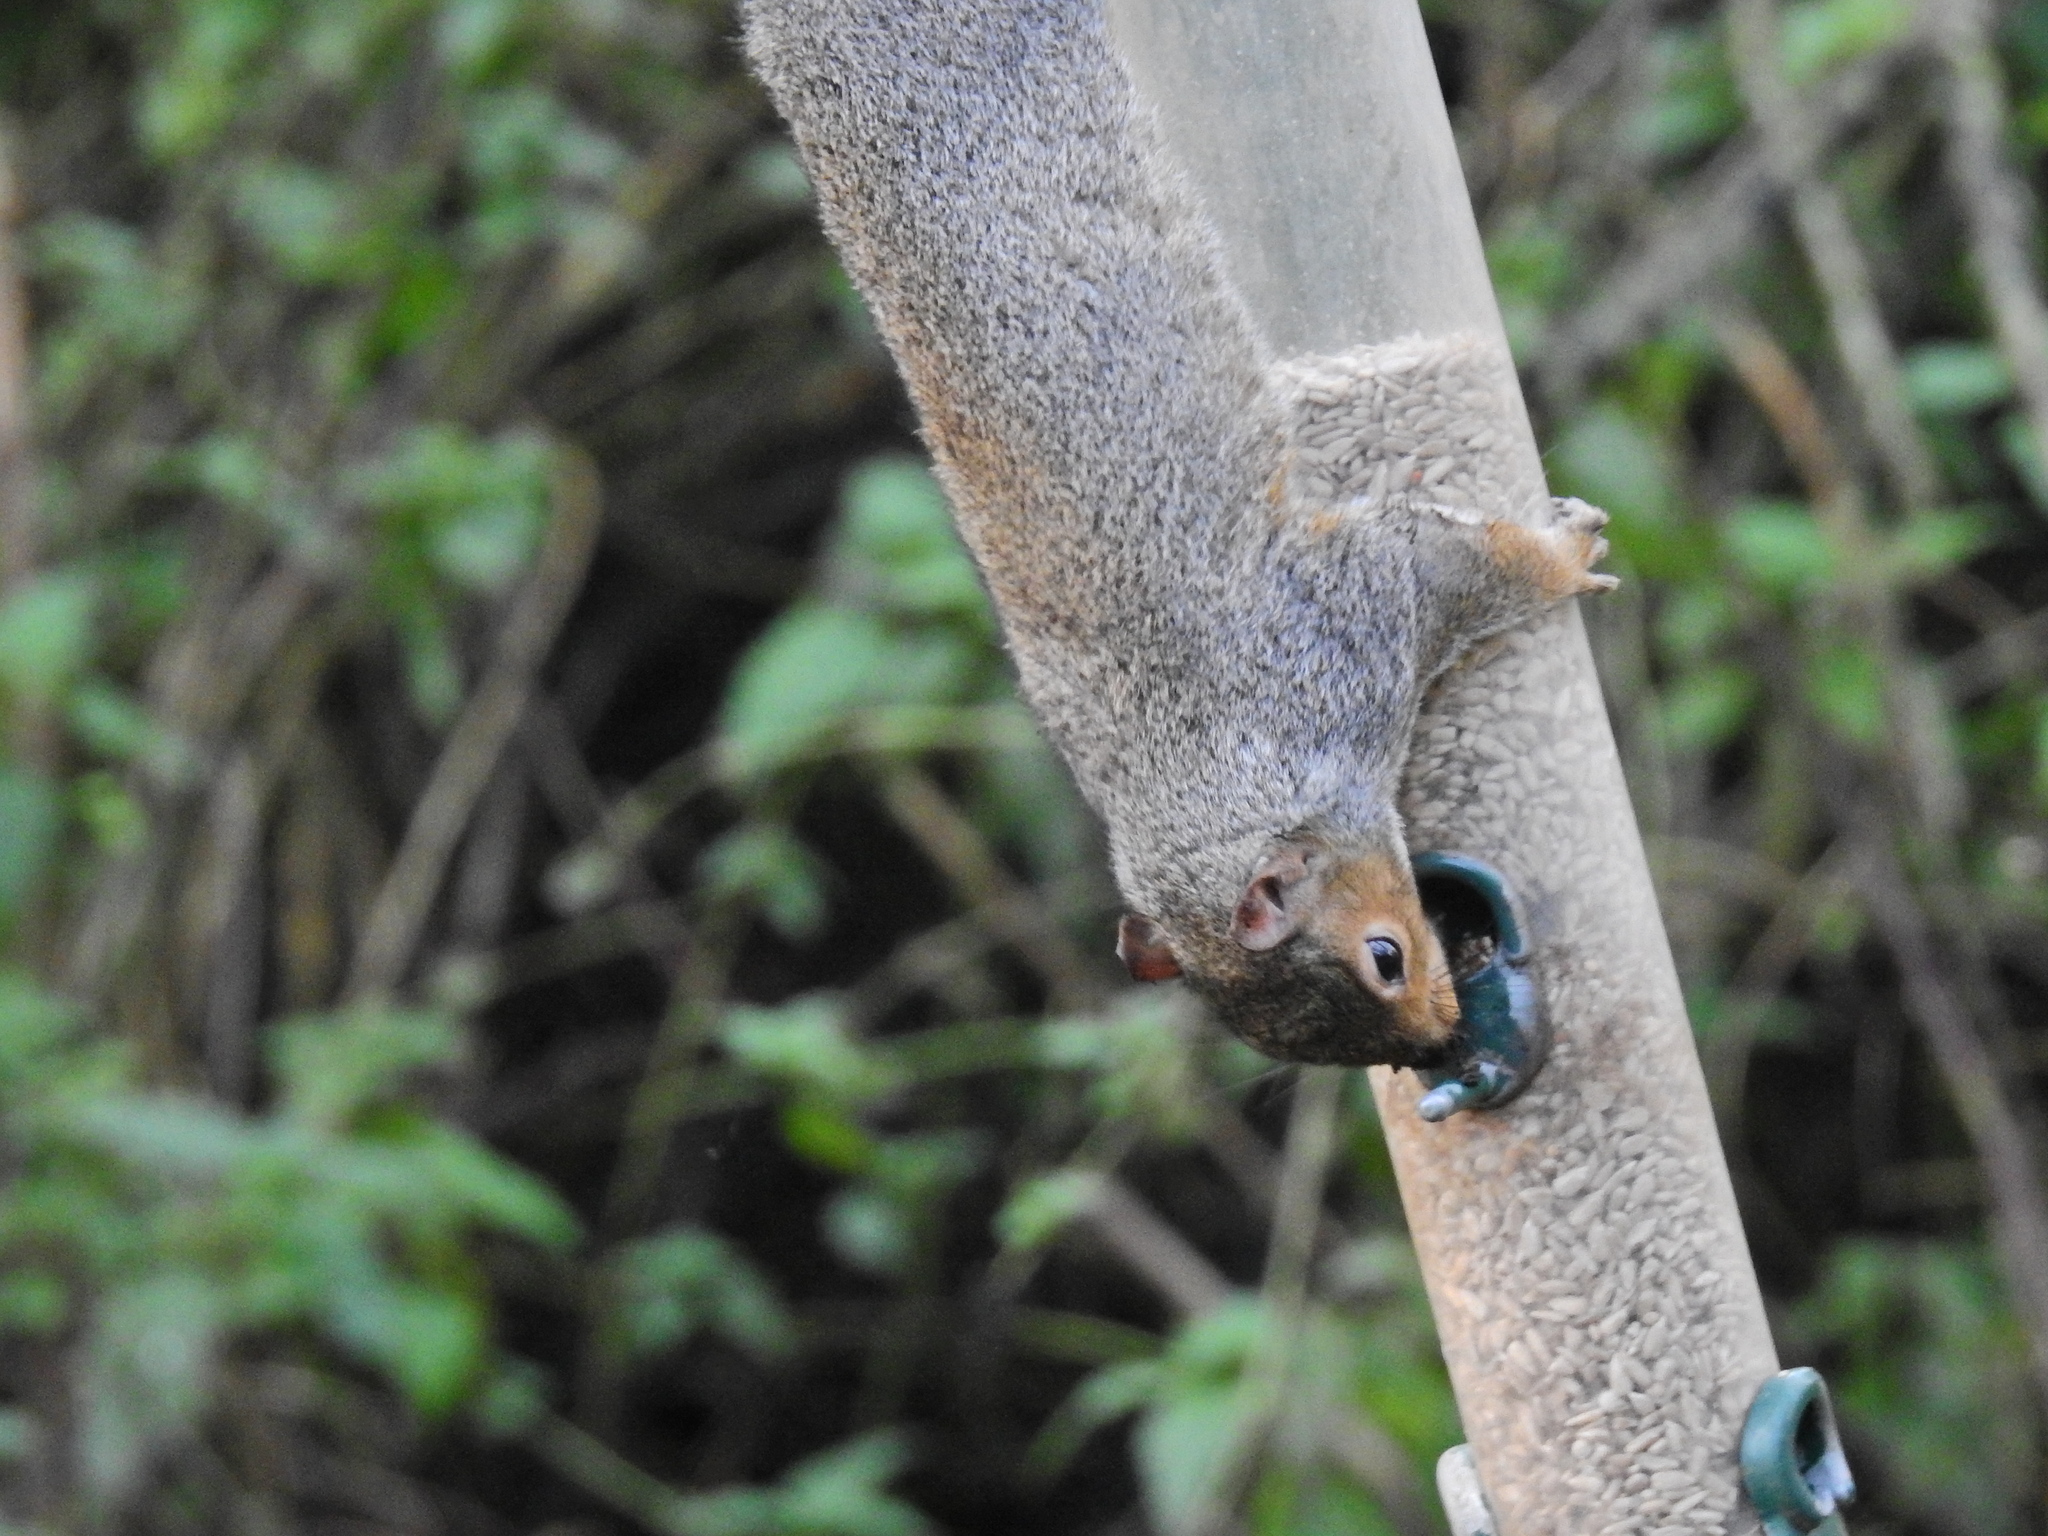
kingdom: Animalia
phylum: Chordata
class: Mammalia
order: Rodentia
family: Sciuridae
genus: Sciurus
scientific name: Sciurus carolinensis
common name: Eastern gray squirrel
